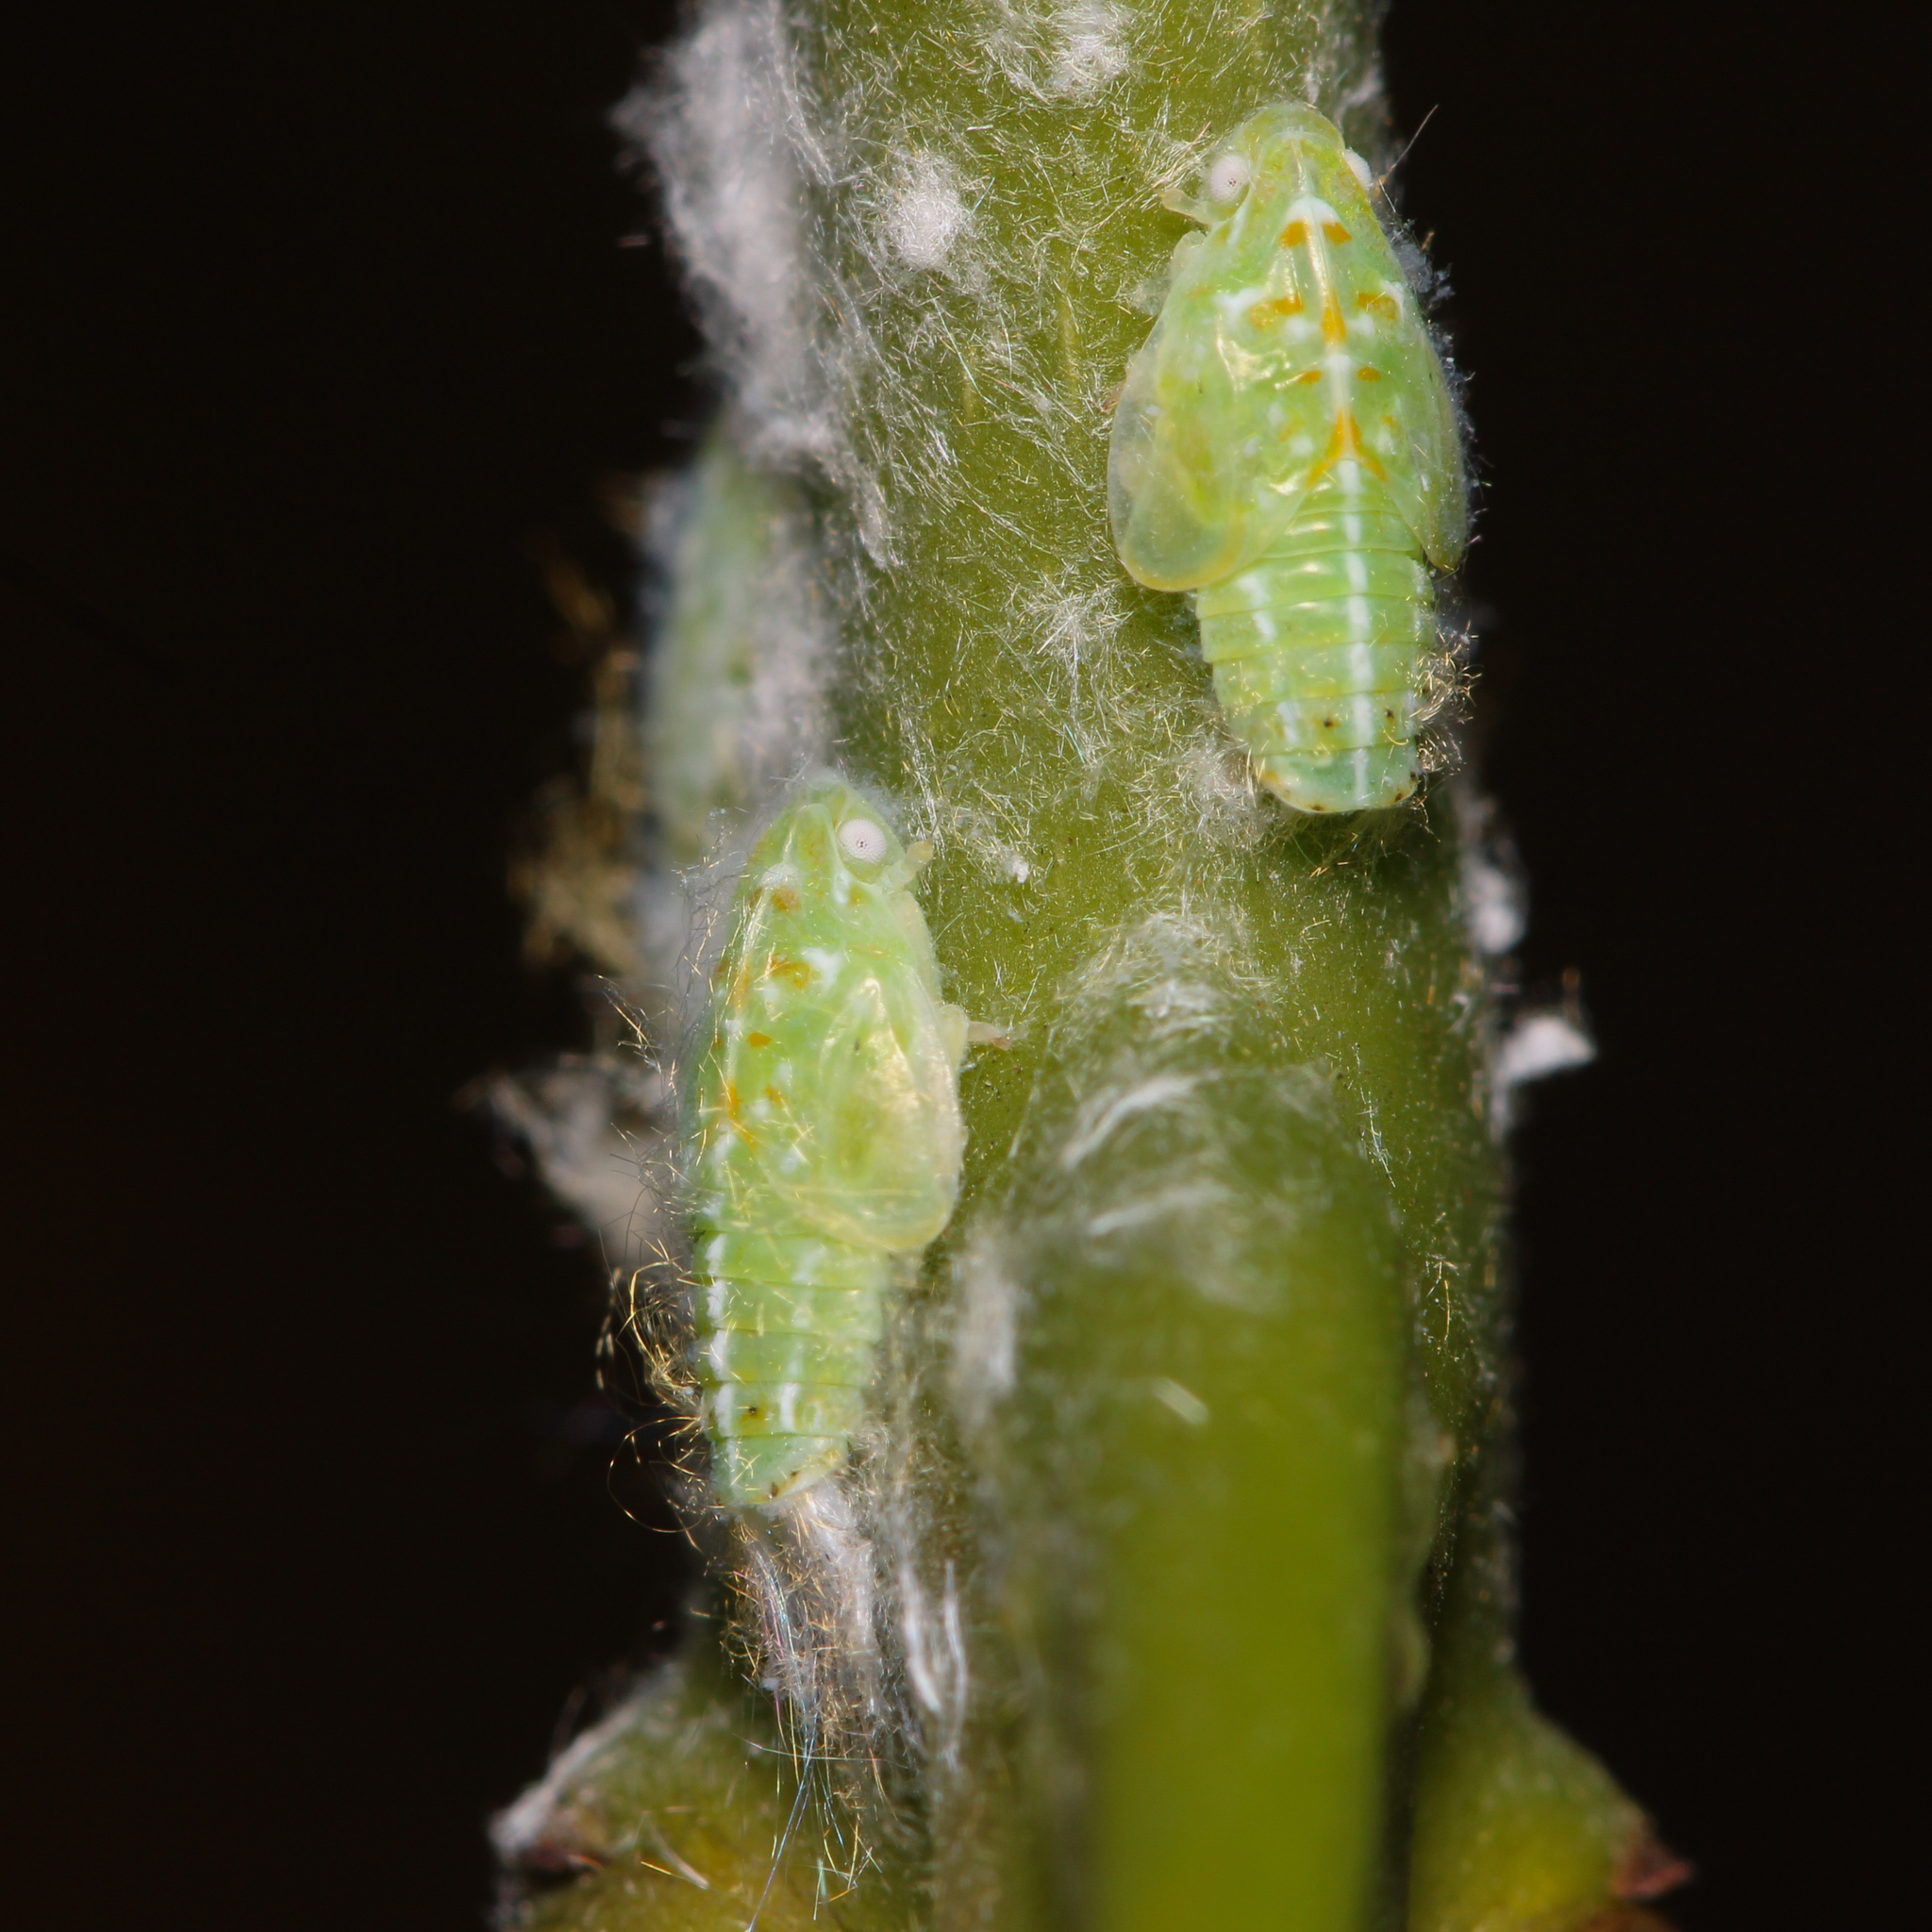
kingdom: Animalia
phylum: Arthropoda
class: Insecta
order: Hemiptera
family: Flatidae
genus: Ormenoides
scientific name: Ormenoides venusta
